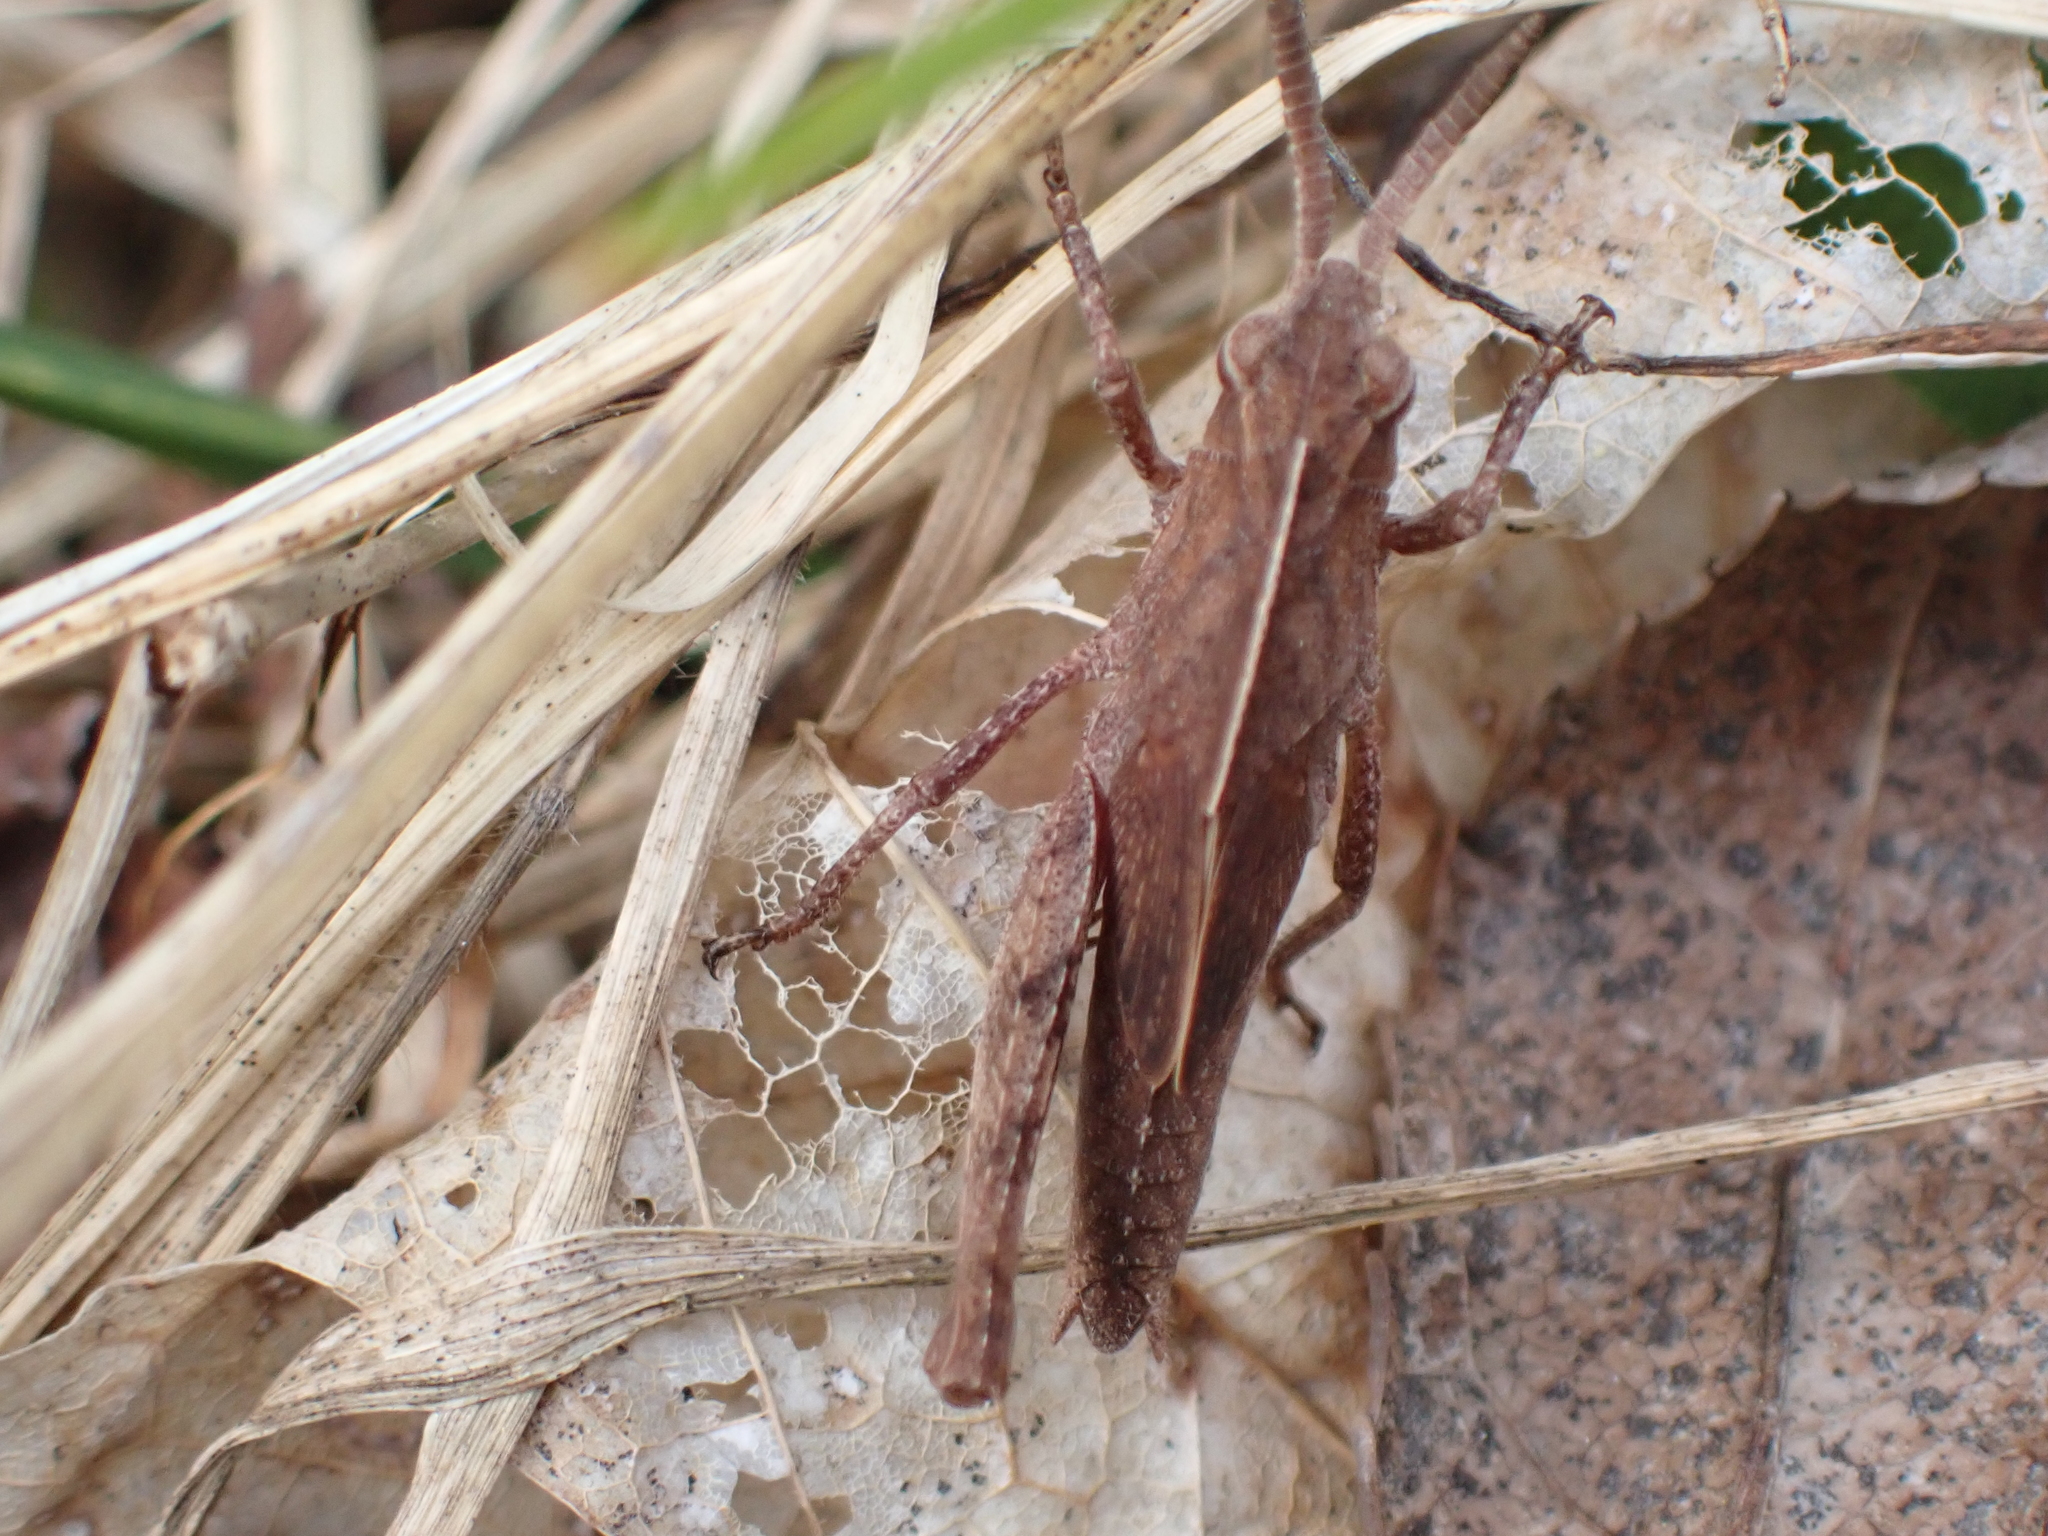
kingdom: Animalia
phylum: Arthropoda
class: Insecta
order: Orthoptera
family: Acrididae
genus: Chortophaga
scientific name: Chortophaga viridifasciata
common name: Green-striped grasshopper
